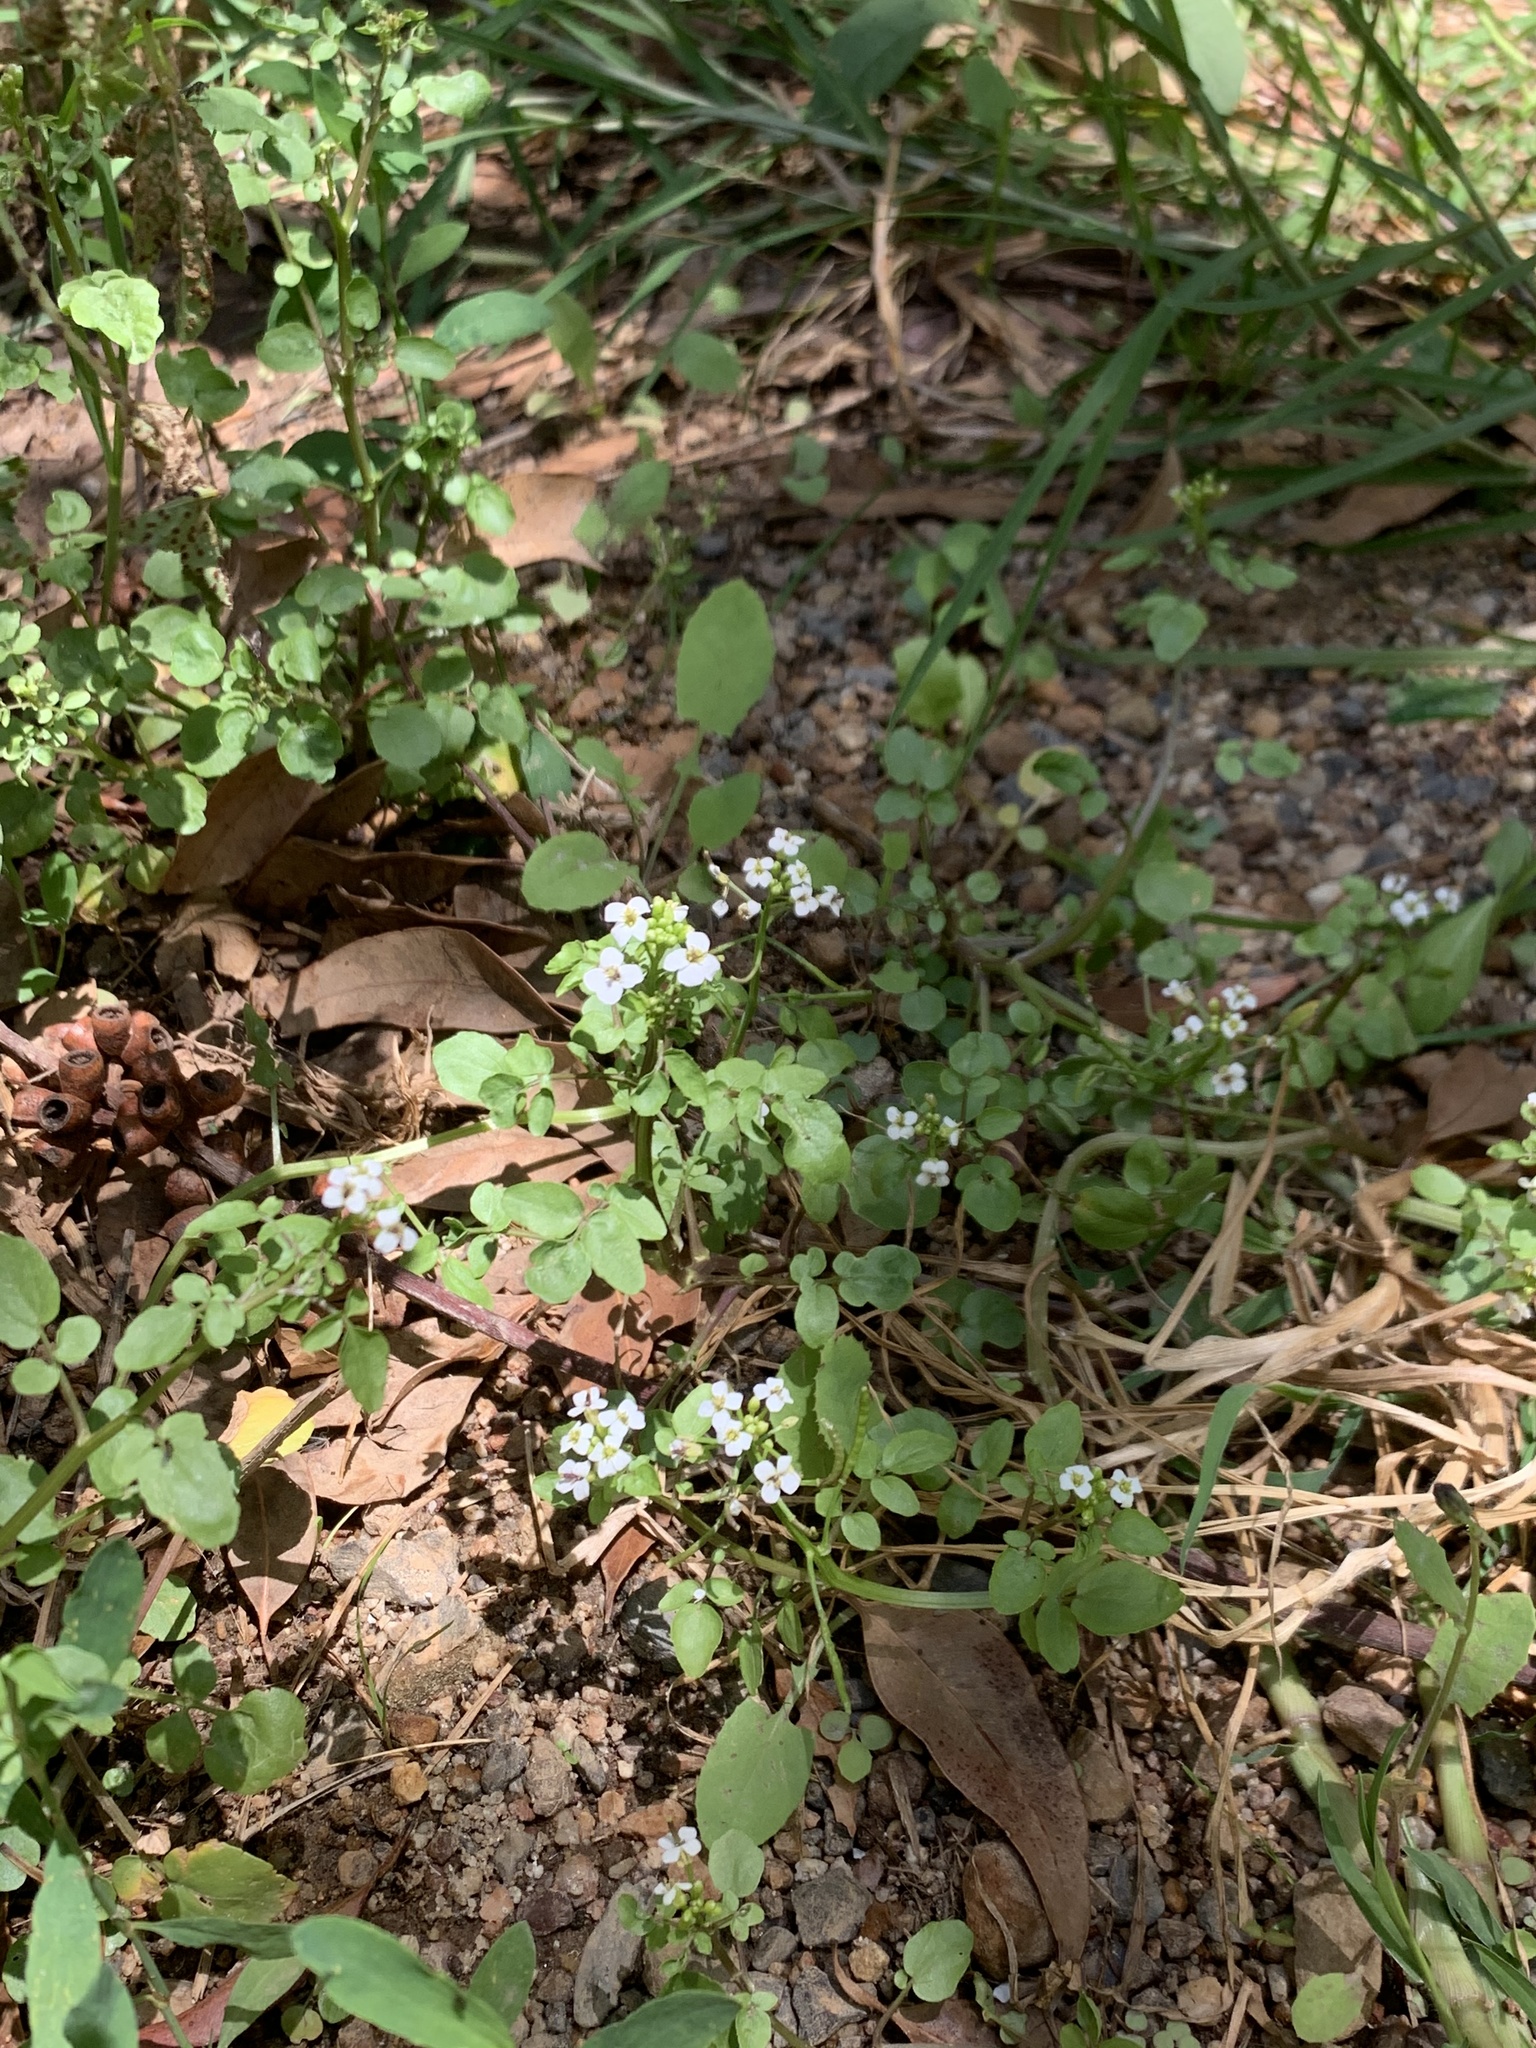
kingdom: Plantae
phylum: Tracheophyta
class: Magnoliopsida
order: Brassicales
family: Brassicaceae
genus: Nasturtium
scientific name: Nasturtium officinale
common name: Watercress
